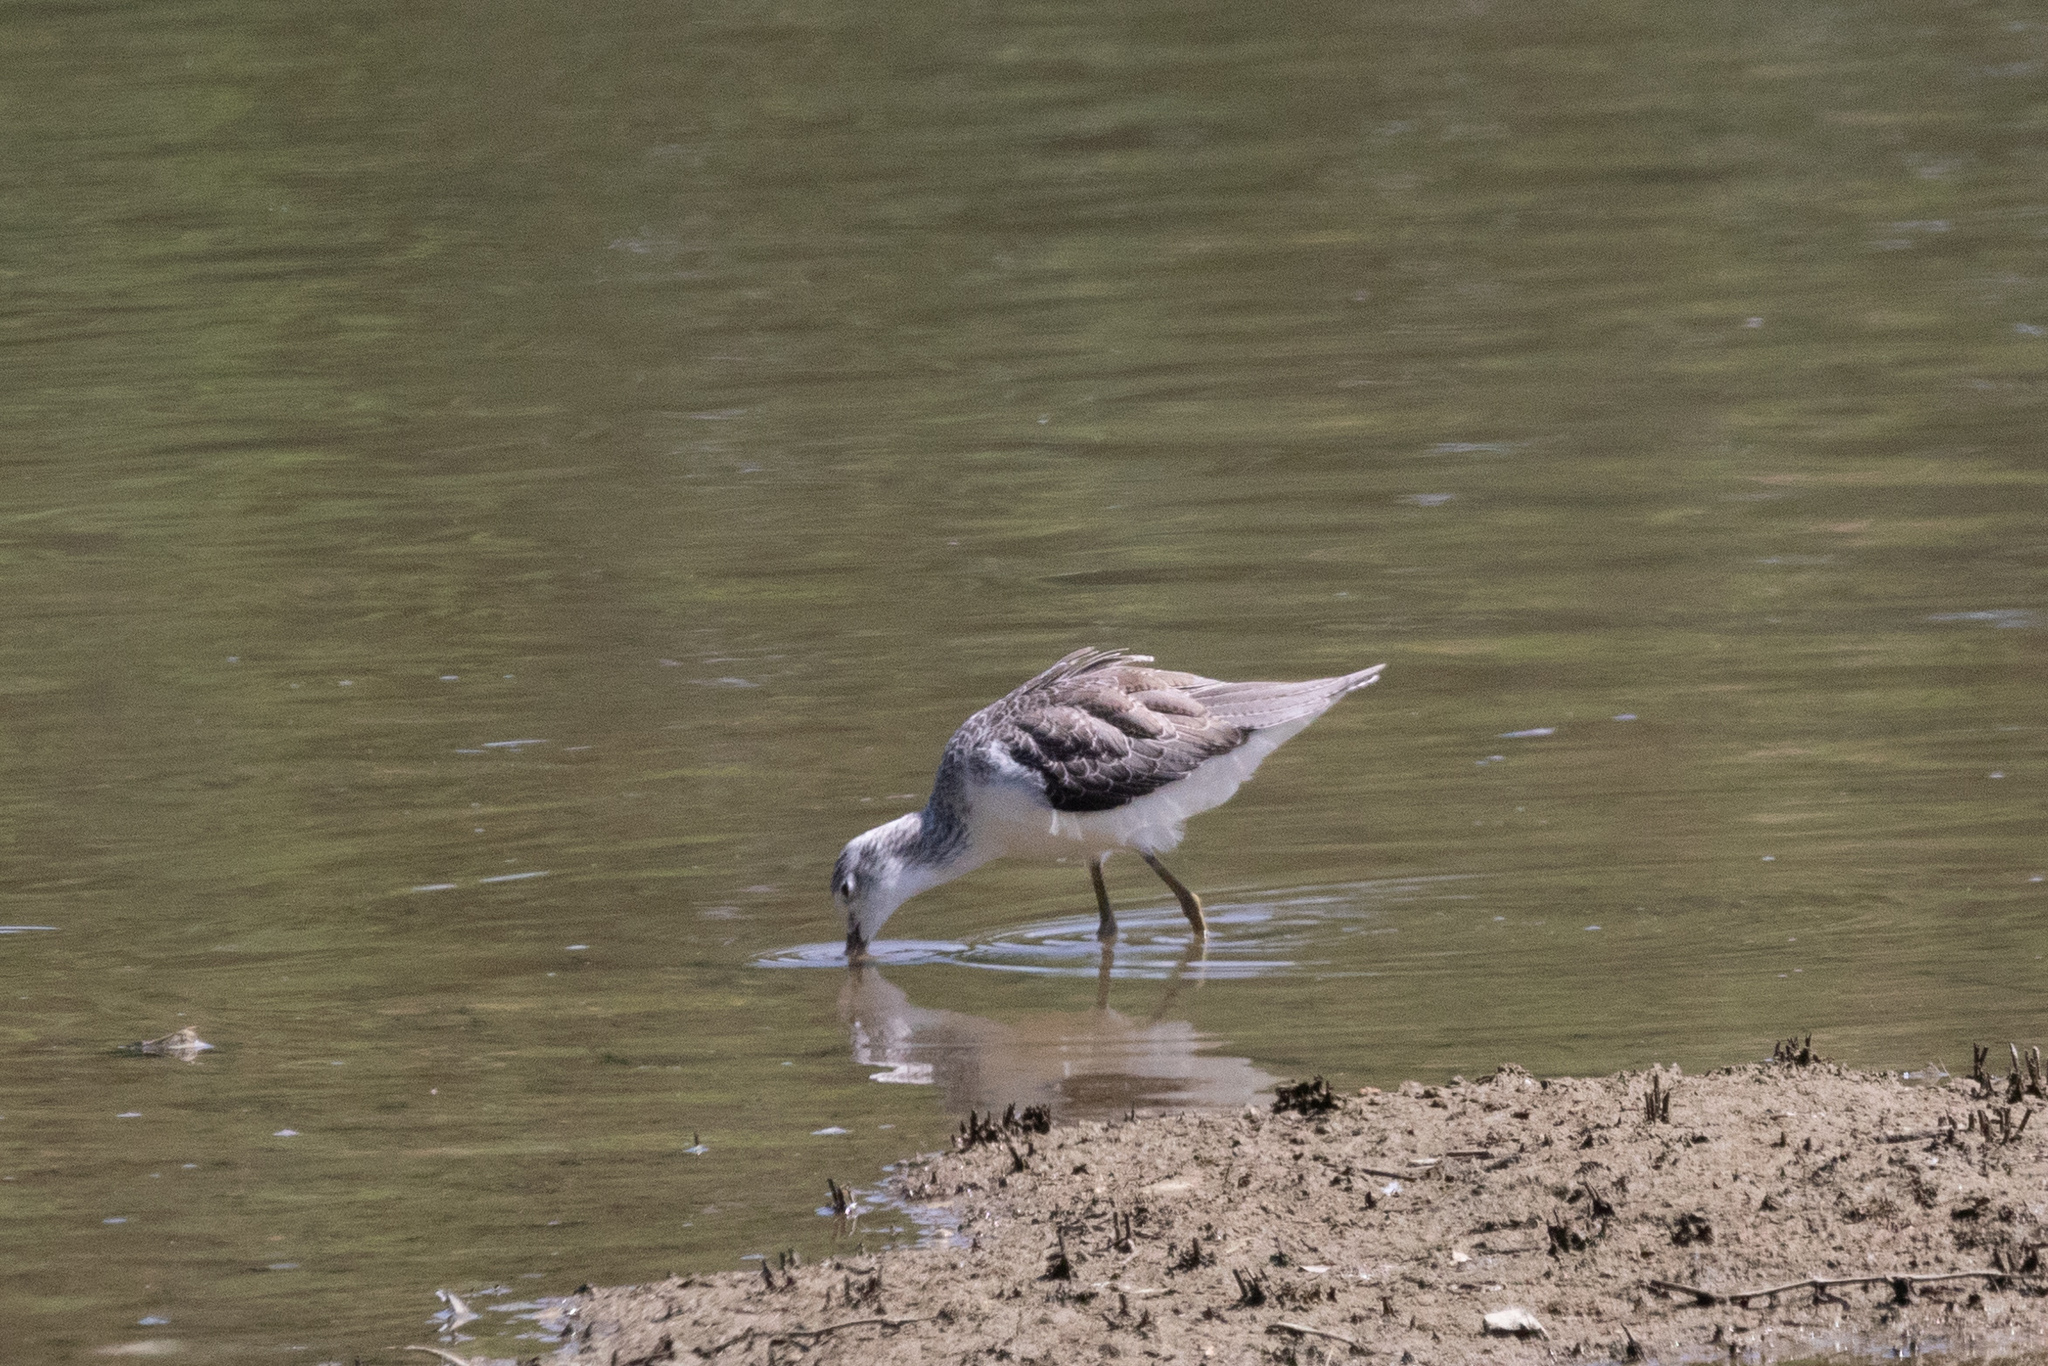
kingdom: Animalia
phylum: Chordata
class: Aves
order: Charadriiformes
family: Scolopacidae
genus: Tringa
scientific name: Tringa nebularia
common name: Common greenshank
